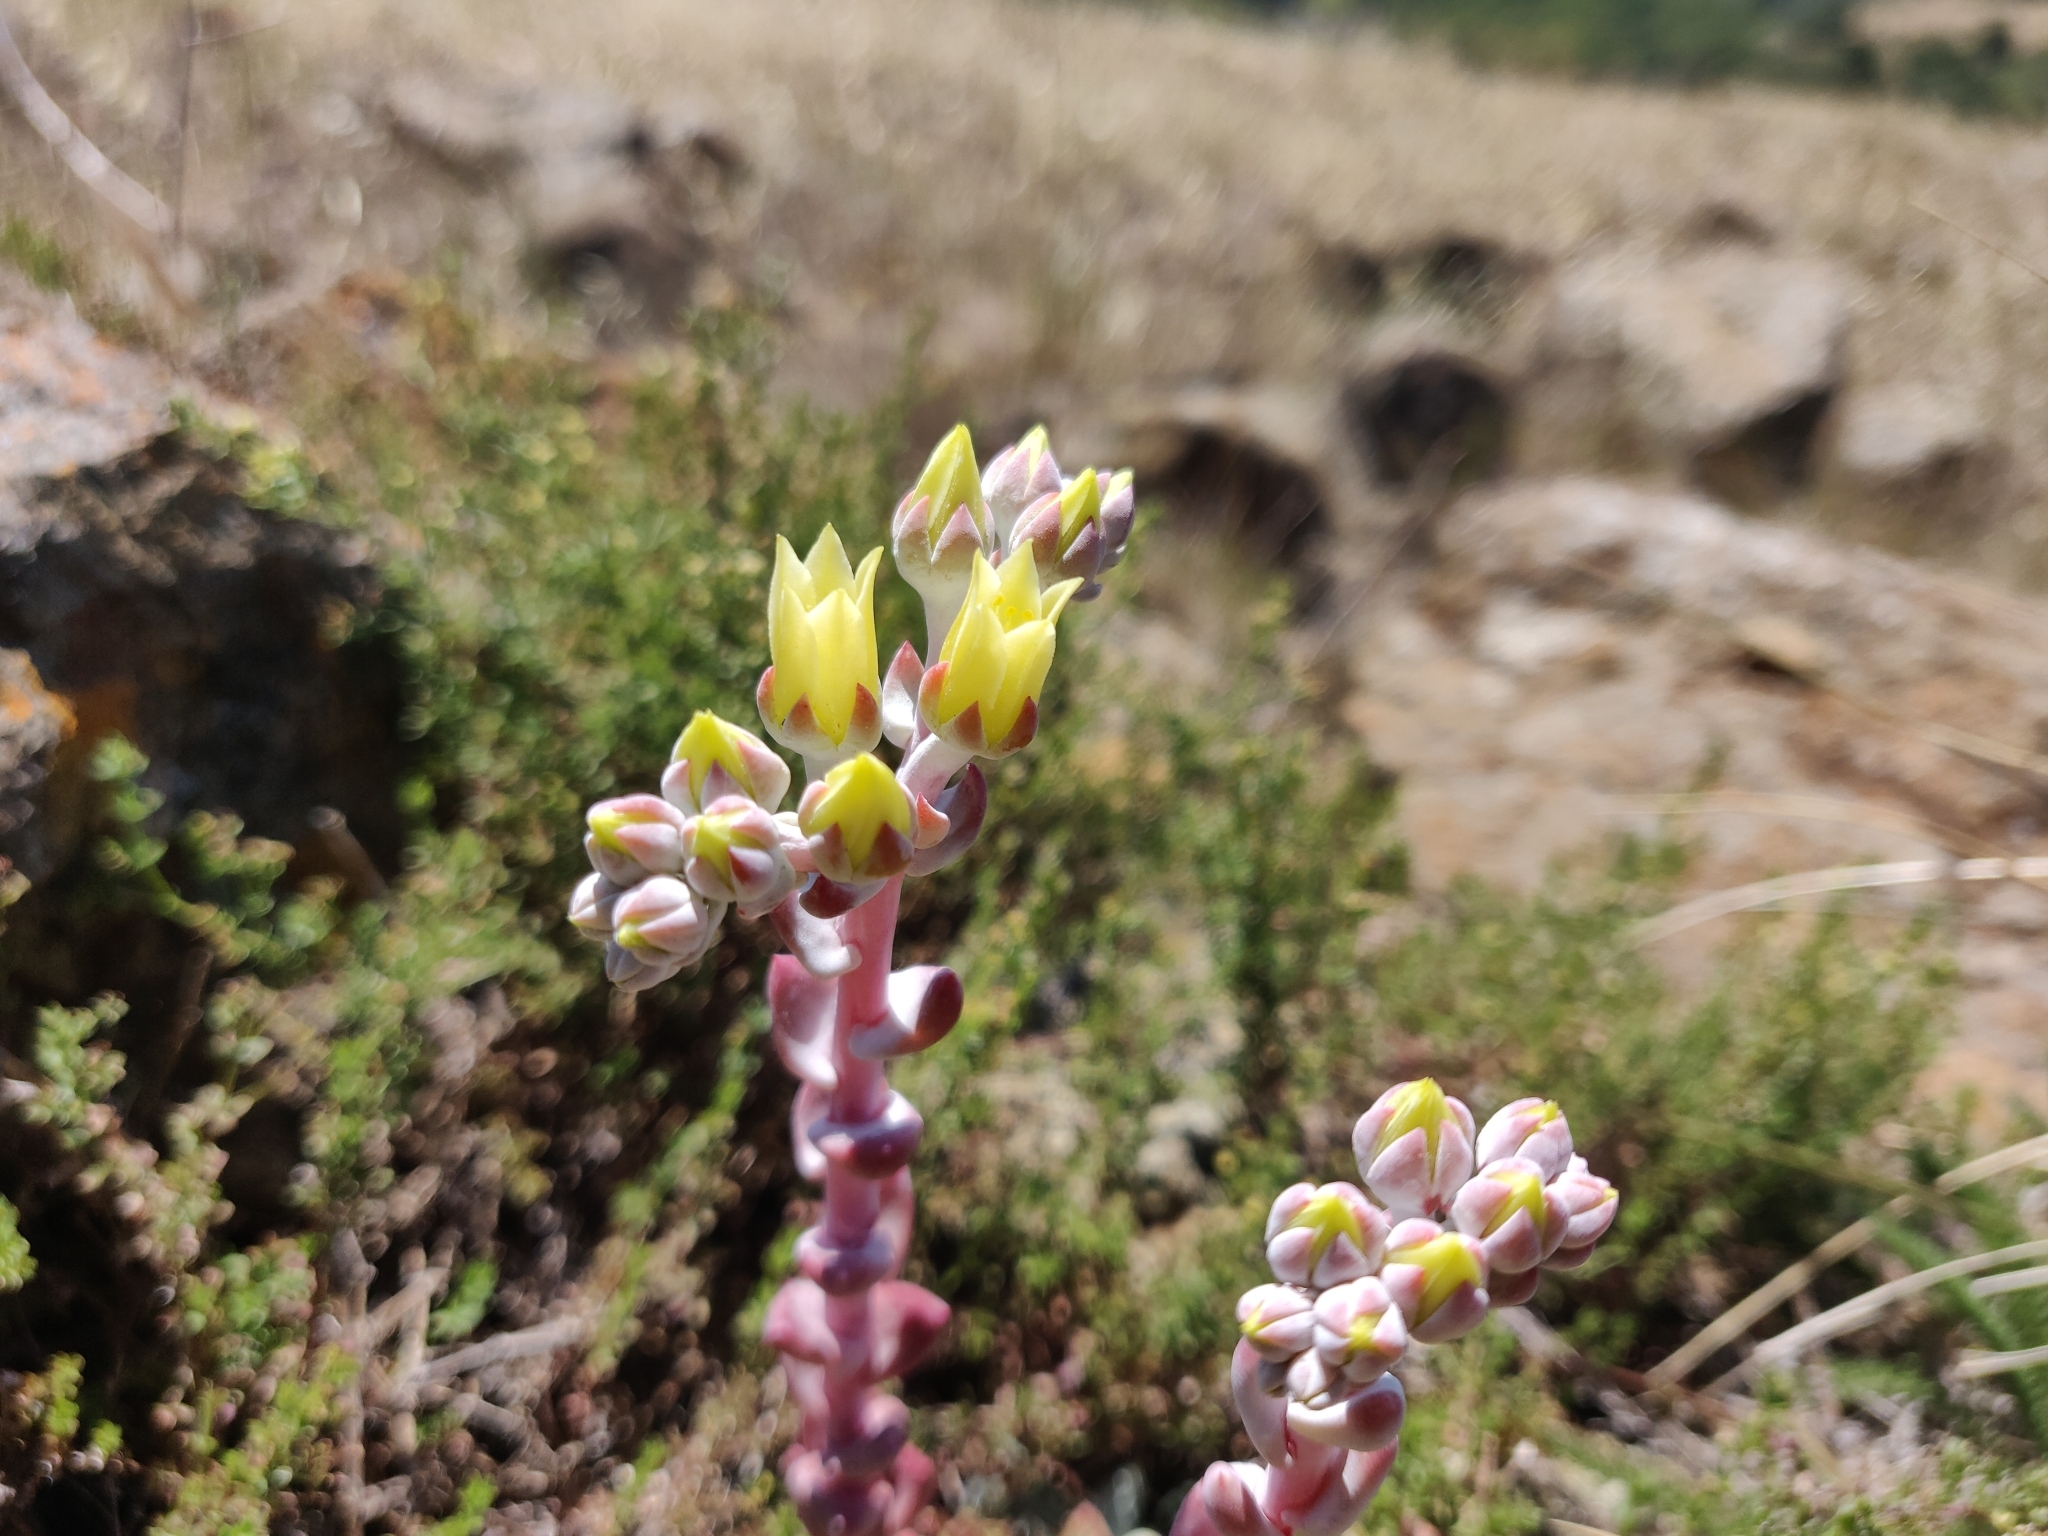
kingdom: Plantae
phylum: Tracheophyta
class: Magnoliopsida
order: Saxifragales
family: Crassulaceae
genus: Dudleya
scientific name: Dudleya farinosa
